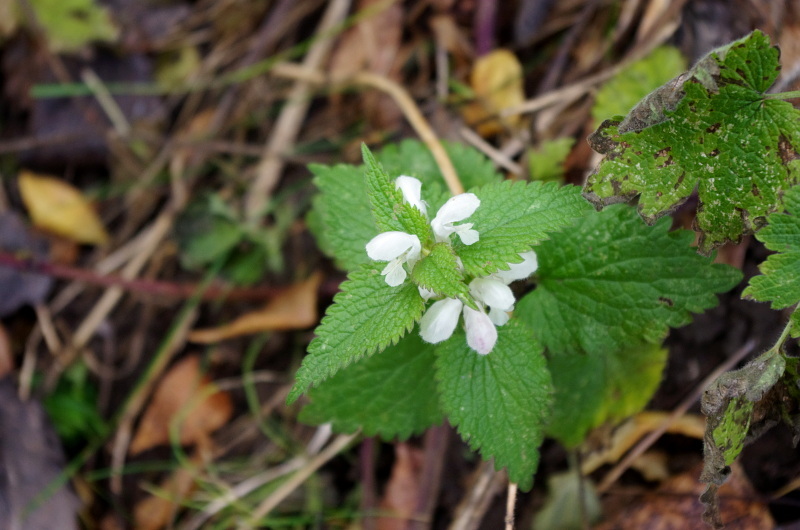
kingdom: Plantae
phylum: Tracheophyta
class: Magnoliopsida
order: Lamiales
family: Lamiaceae
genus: Lamium
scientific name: Lamium album
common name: White dead-nettle
